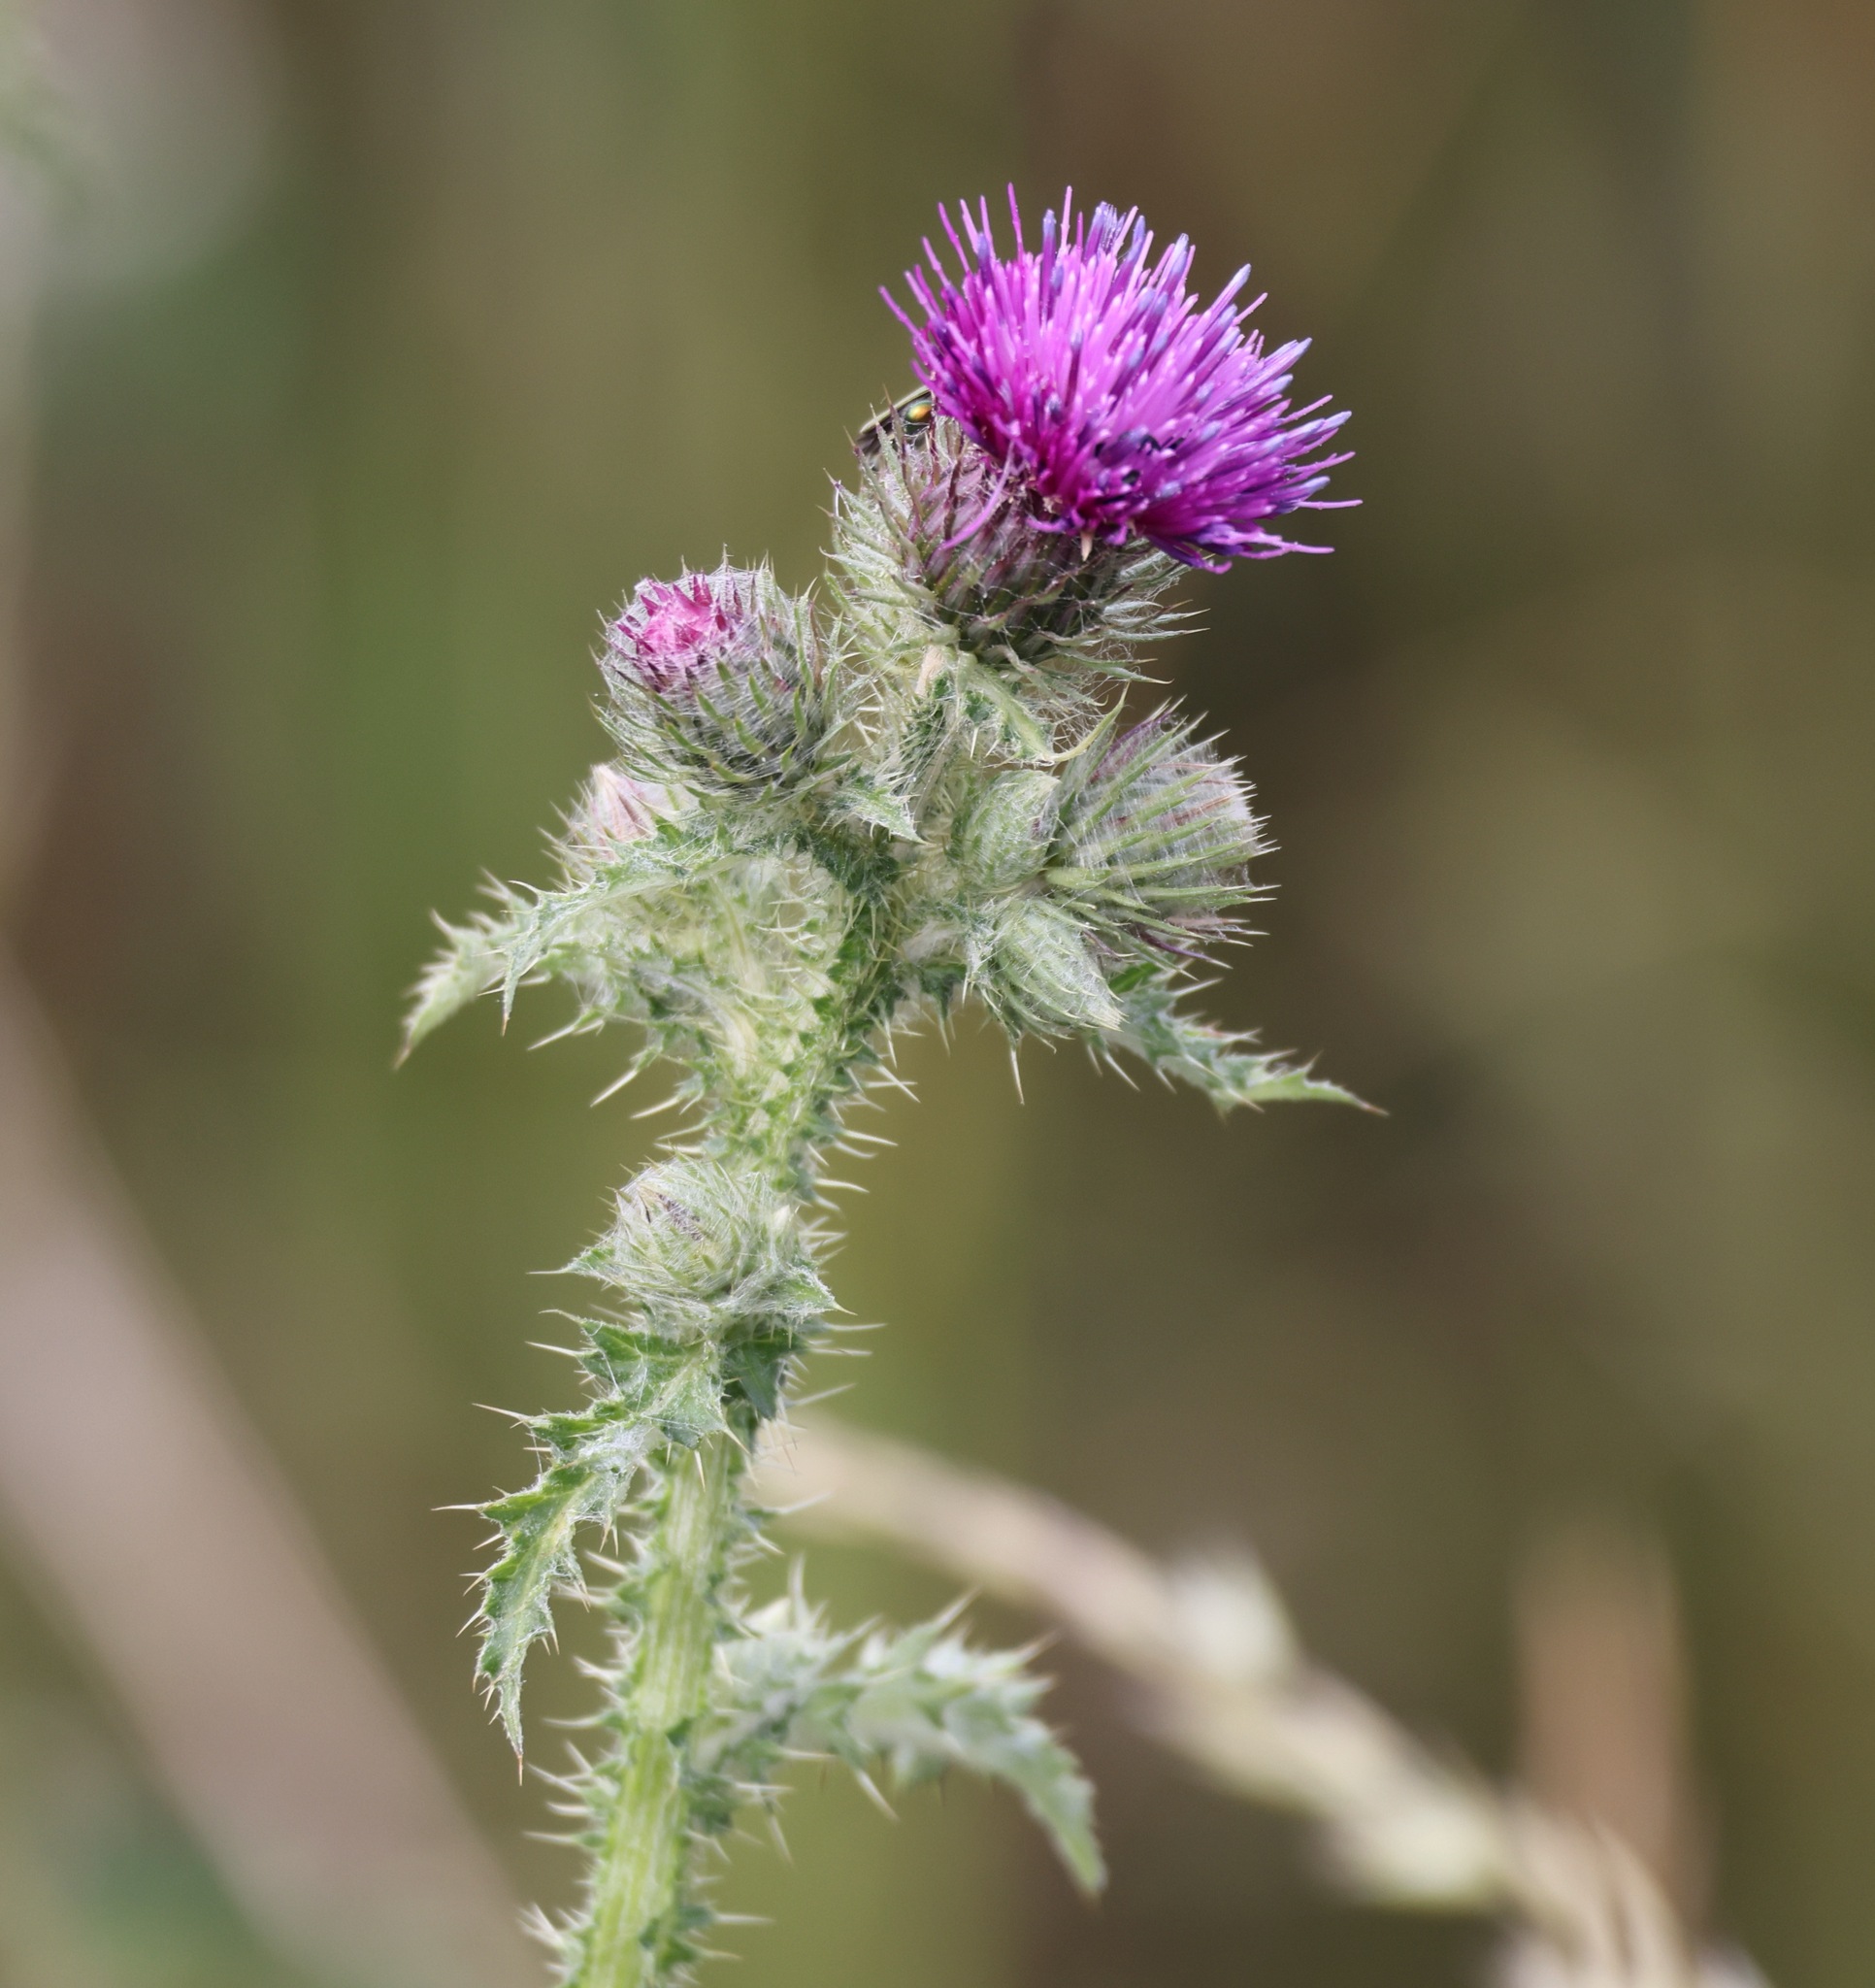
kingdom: Plantae
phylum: Tracheophyta
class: Magnoliopsida
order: Asterales
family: Asteraceae
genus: Carduus
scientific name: Carduus crispus
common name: Welted thistle
